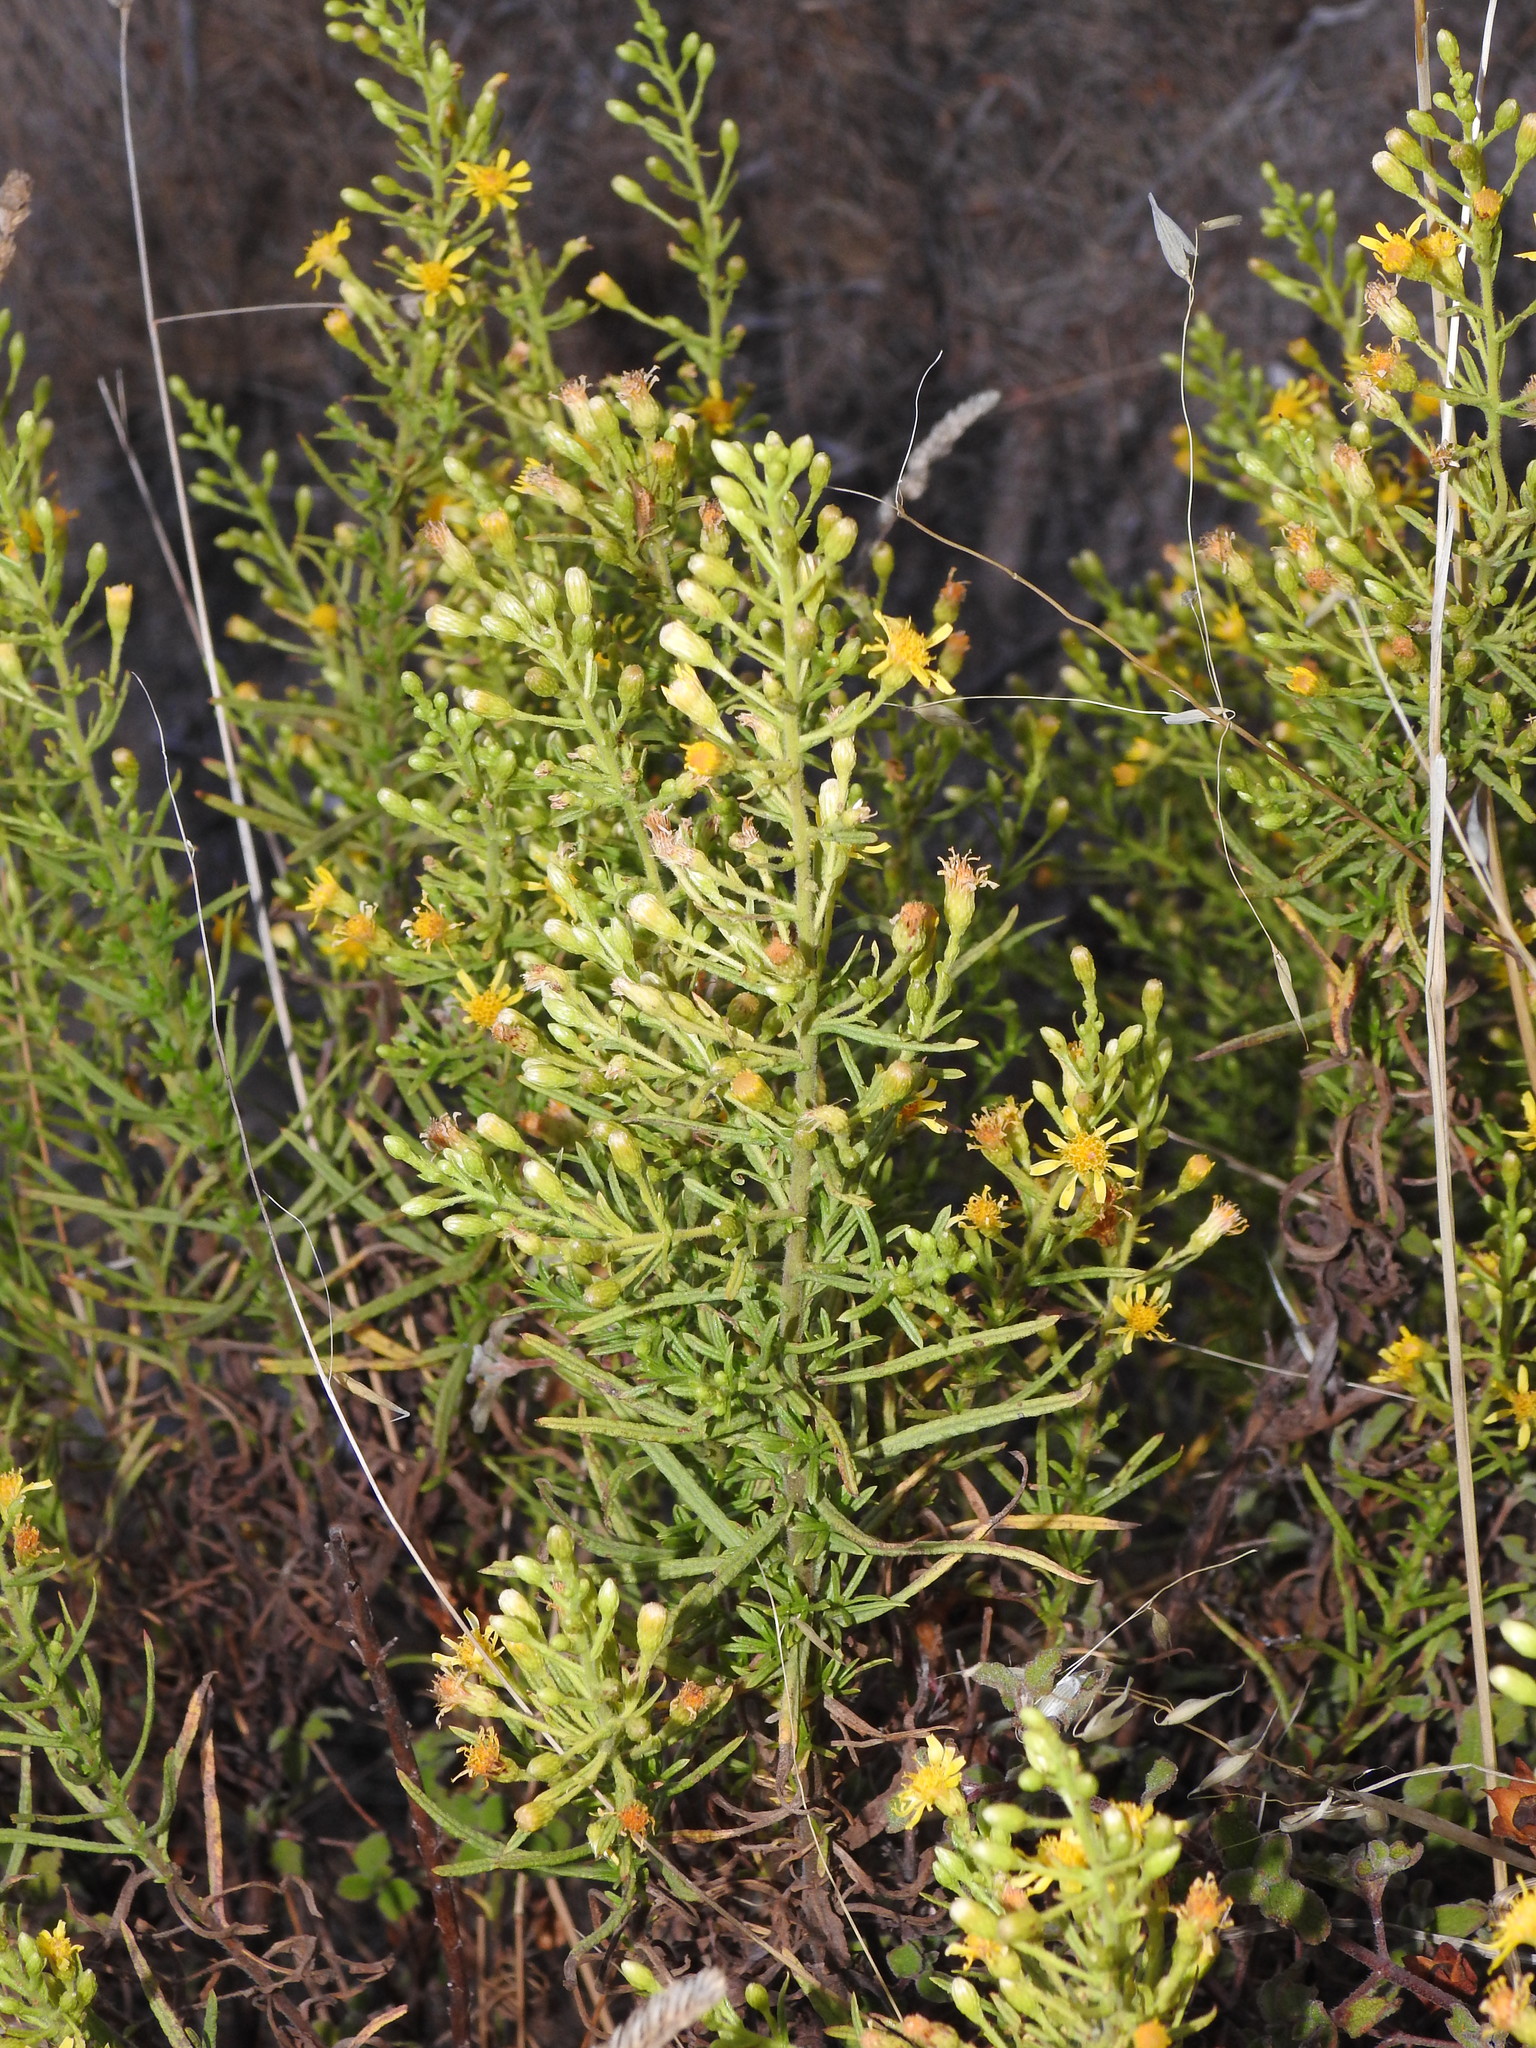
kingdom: Plantae
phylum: Tracheophyta
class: Magnoliopsida
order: Asterales
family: Asteraceae
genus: Dittrichia
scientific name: Dittrichia viscosa
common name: Woody fleabane
